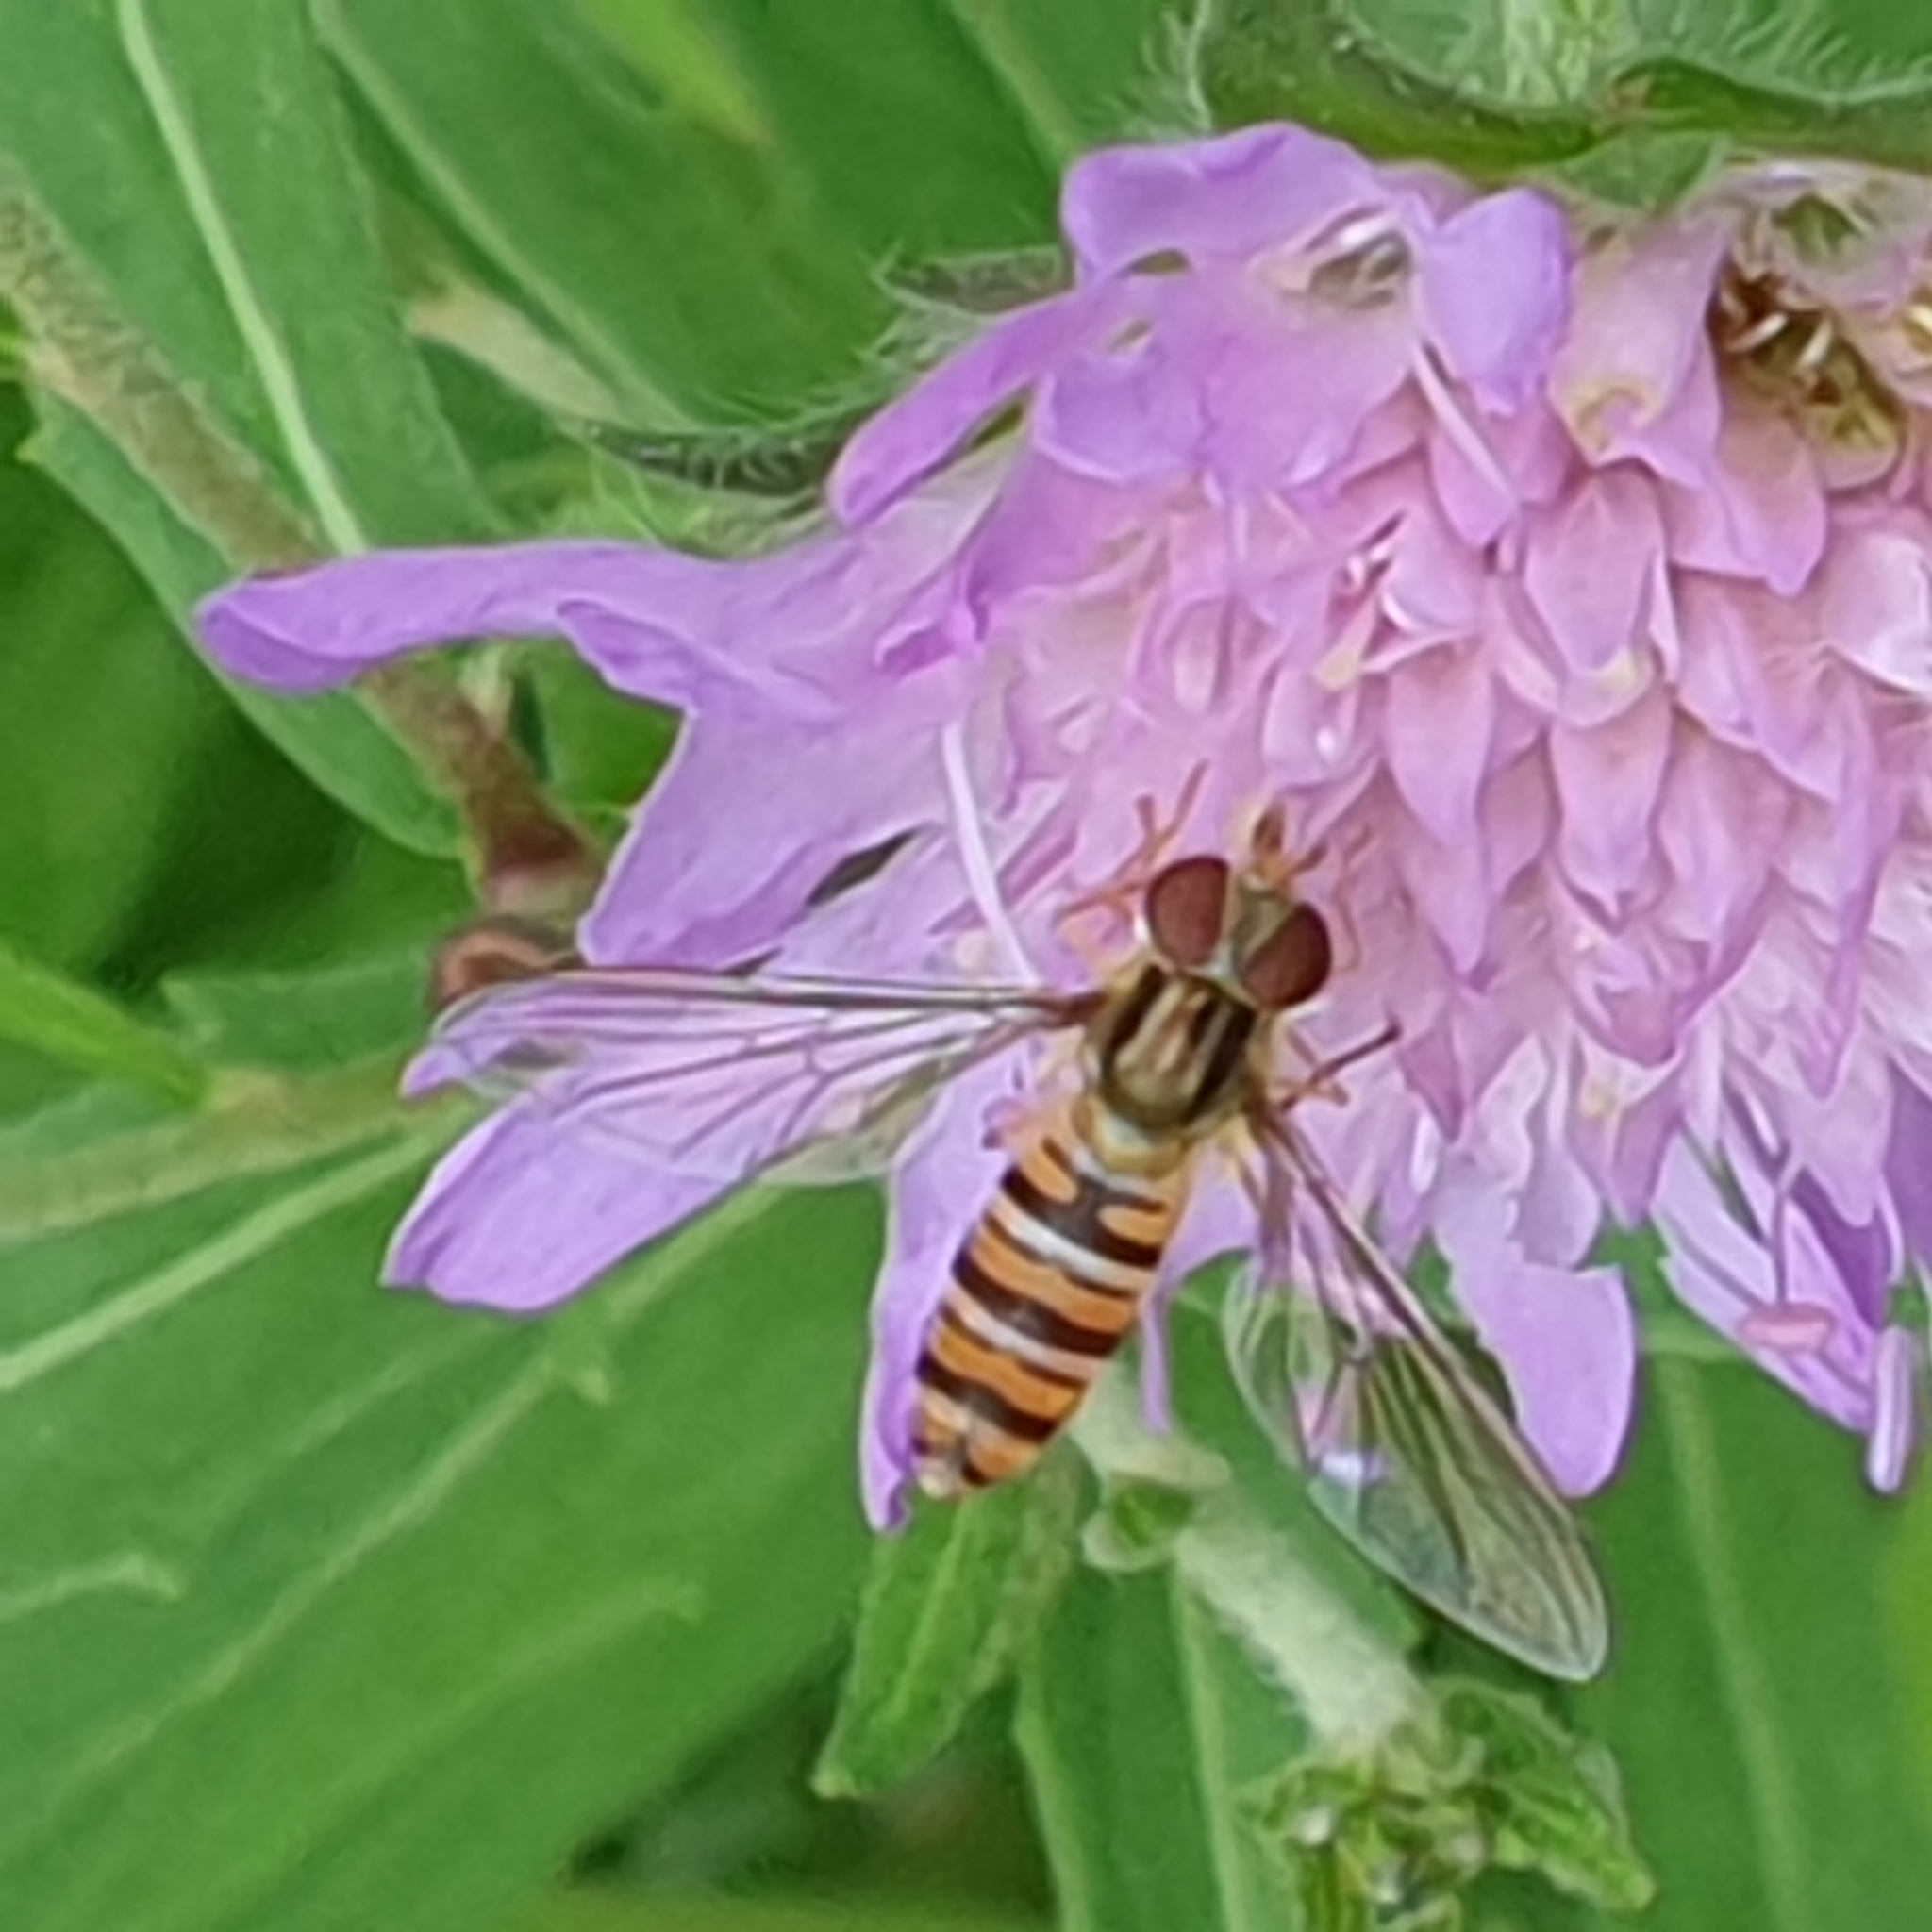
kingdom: Animalia
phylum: Arthropoda
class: Insecta
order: Diptera
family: Syrphidae
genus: Episyrphus
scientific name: Episyrphus balteatus
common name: Marmalade hoverfly
